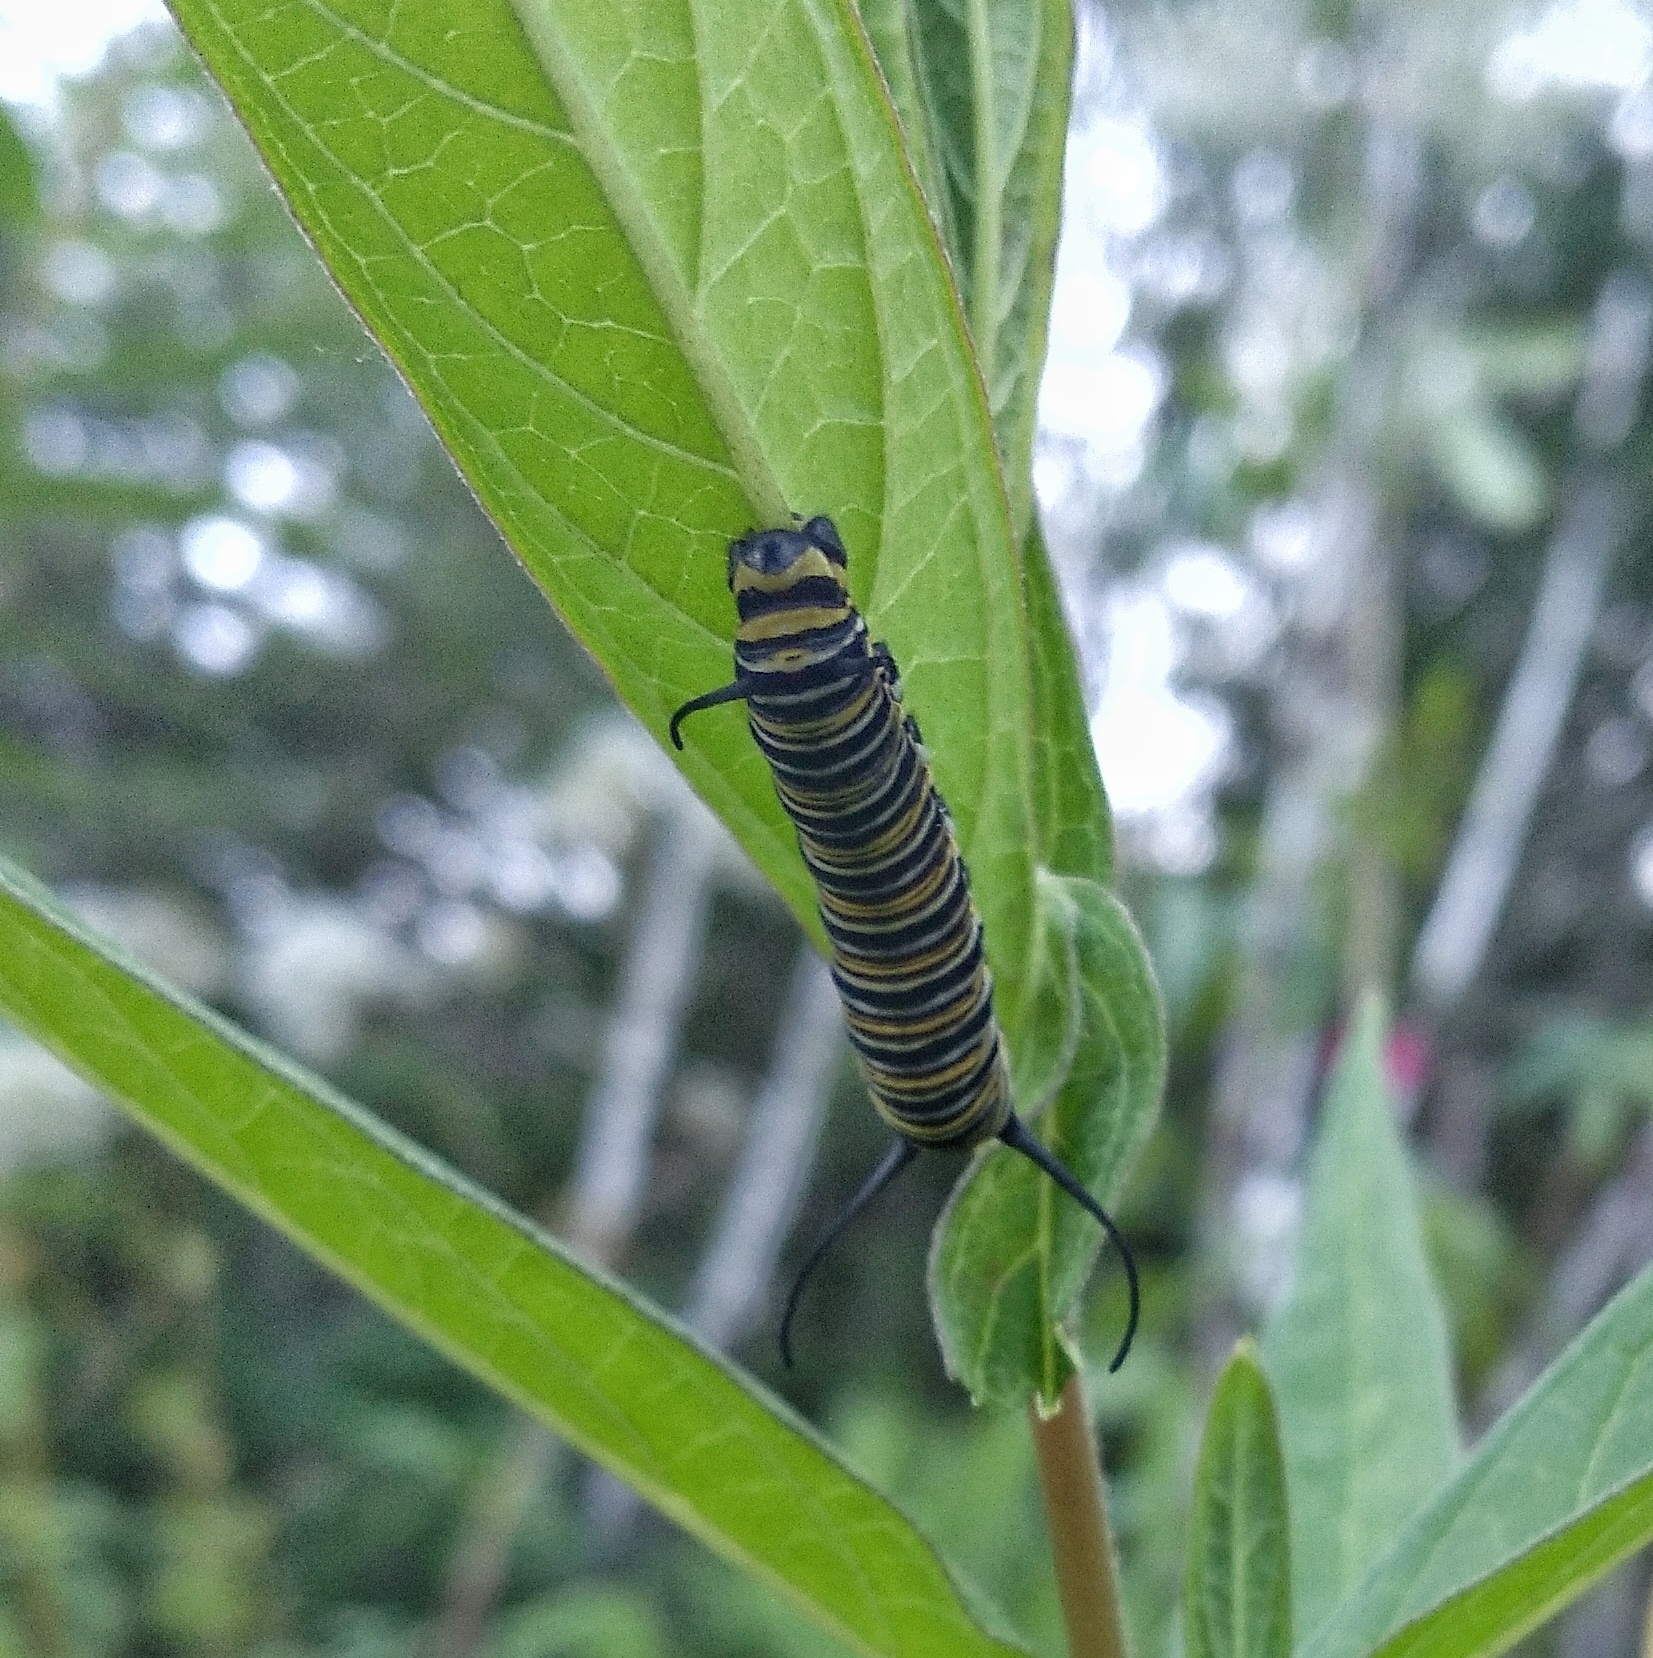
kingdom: Animalia
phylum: Arthropoda
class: Insecta
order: Lepidoptera
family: Nymphalidae
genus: Danaus
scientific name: Danaus plexippus
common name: Monarch
